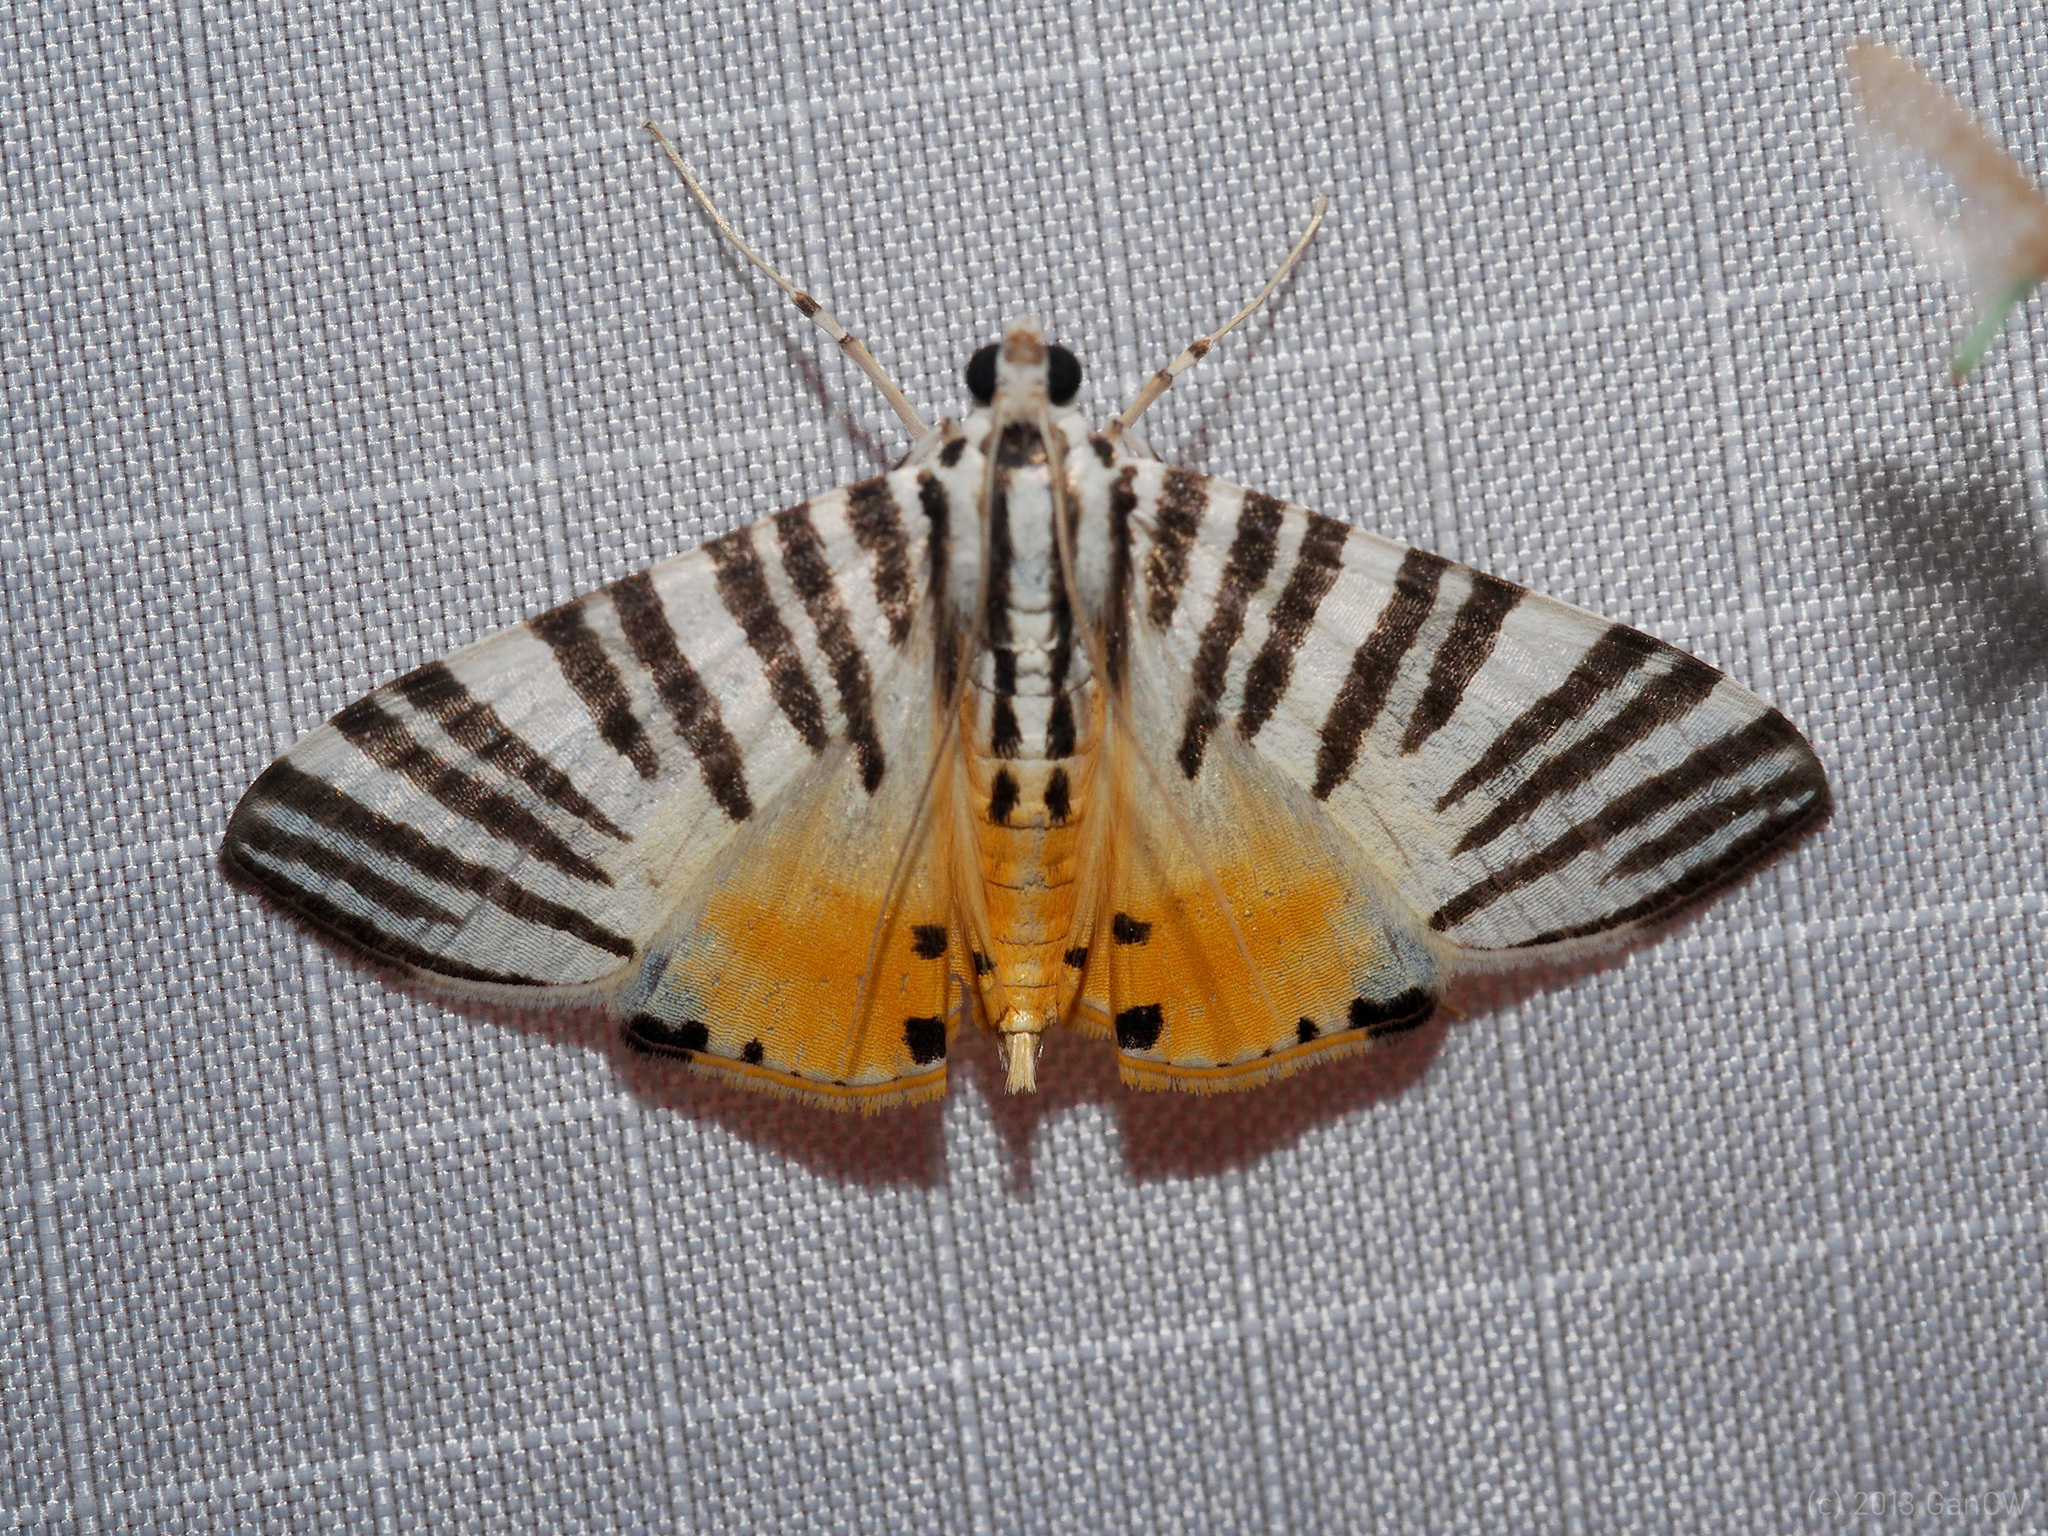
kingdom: Animalia
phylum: Arthropoda
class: Insecta
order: Lepidoptera
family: Crambidae
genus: Dichocrocis
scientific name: Dichocrocis zebralis
